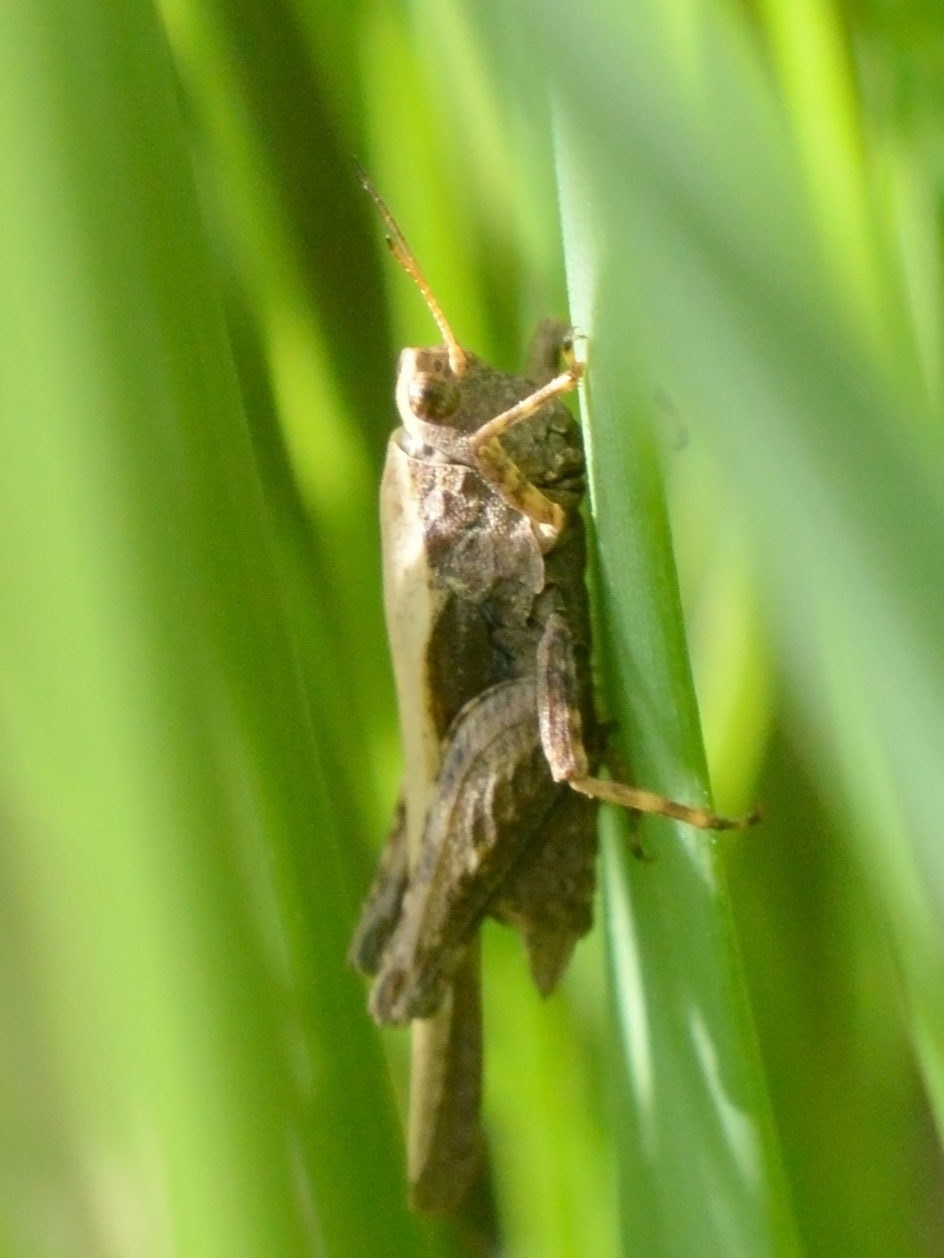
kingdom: Animalia
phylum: Arthropoda
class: Insecta
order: Orthoptera
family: Tetrigidae
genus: Tetrix
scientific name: Tetrix subulata
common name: Slender ground-hopper
